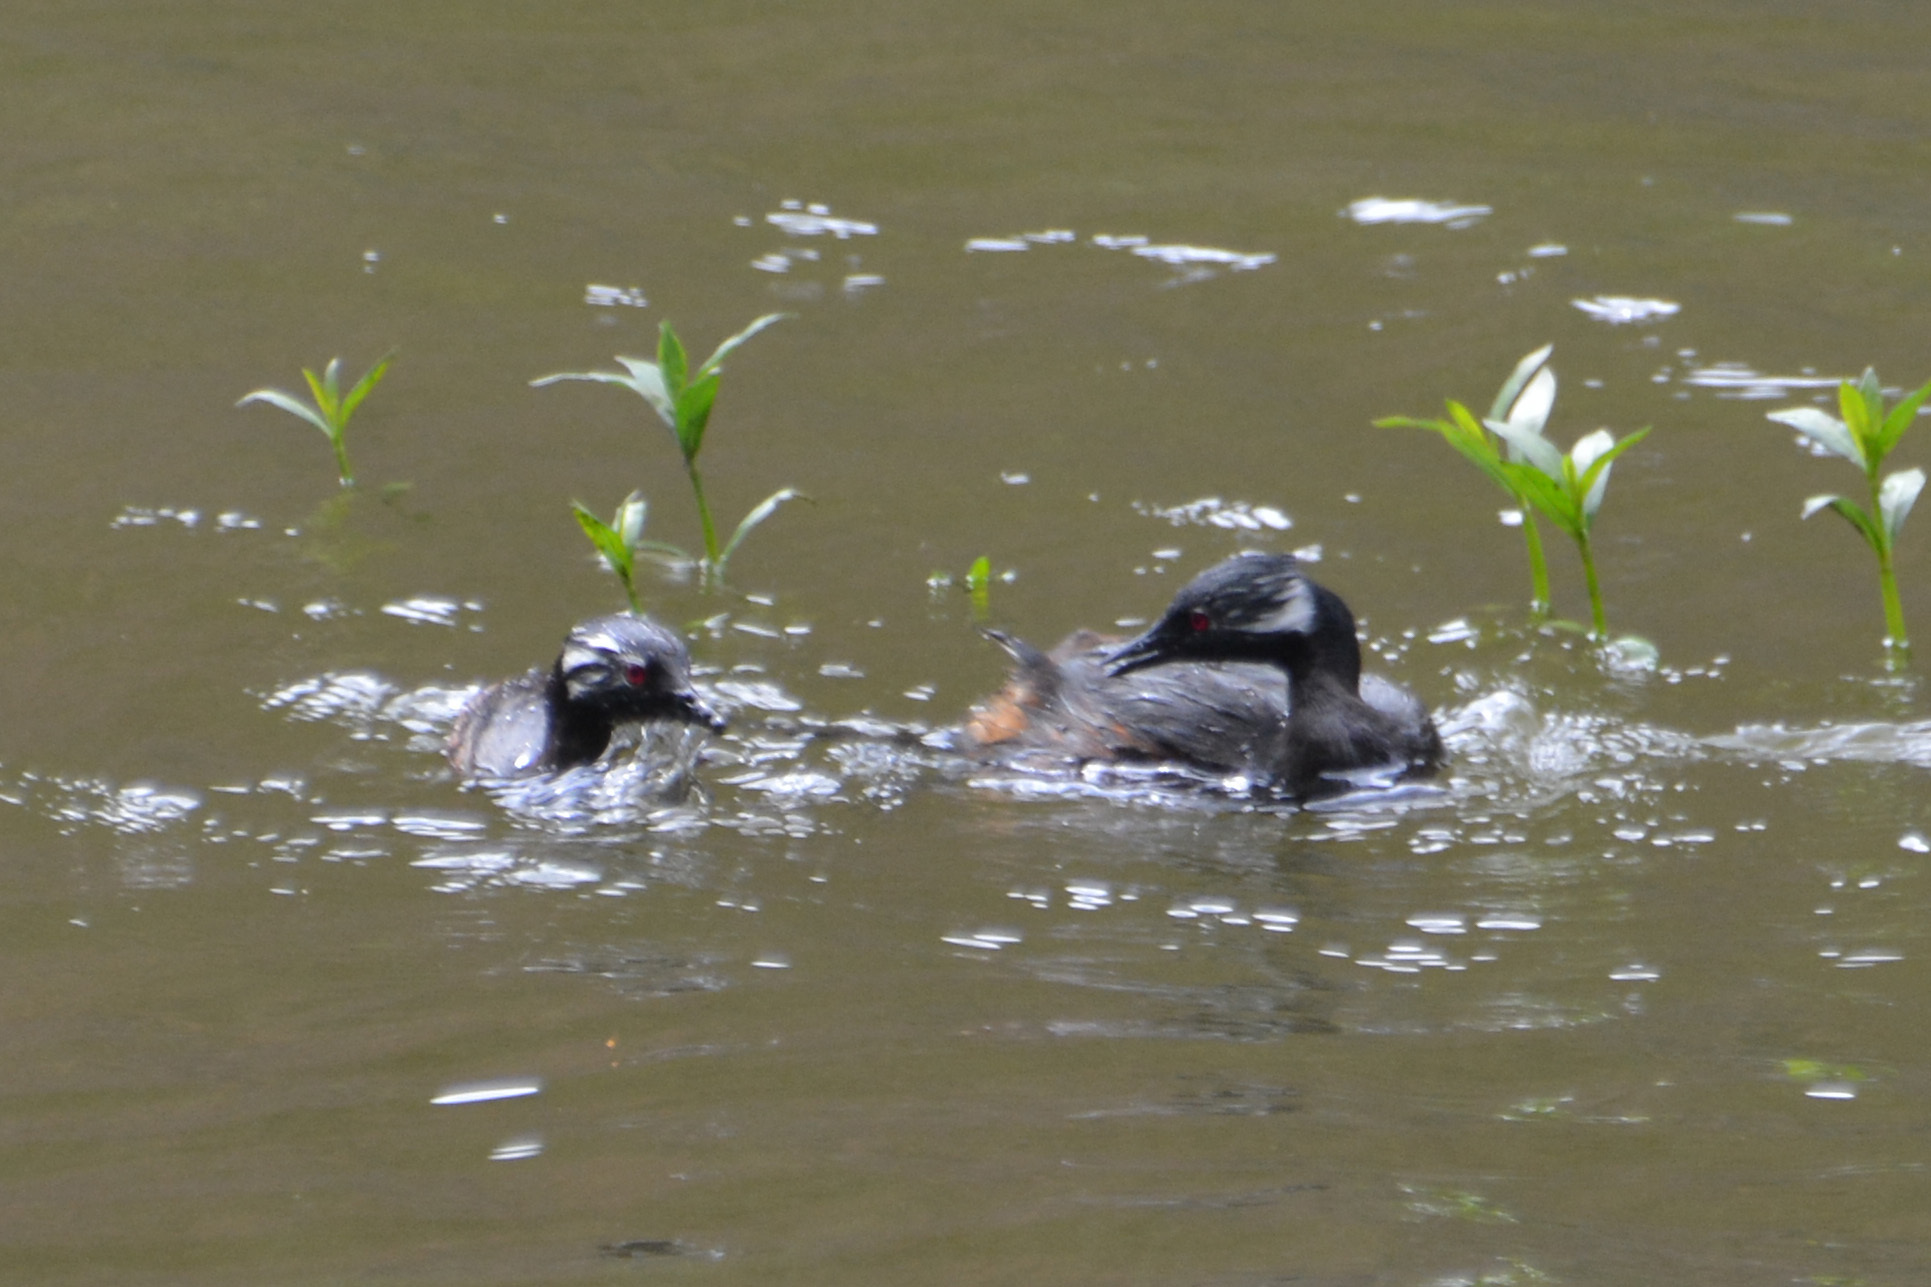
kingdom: Animalia
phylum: Chordata
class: Aves
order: Podicipediformes
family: Podicipedidae
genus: Rollandia
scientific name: Rollandia rolland
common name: White-tufted grebe
